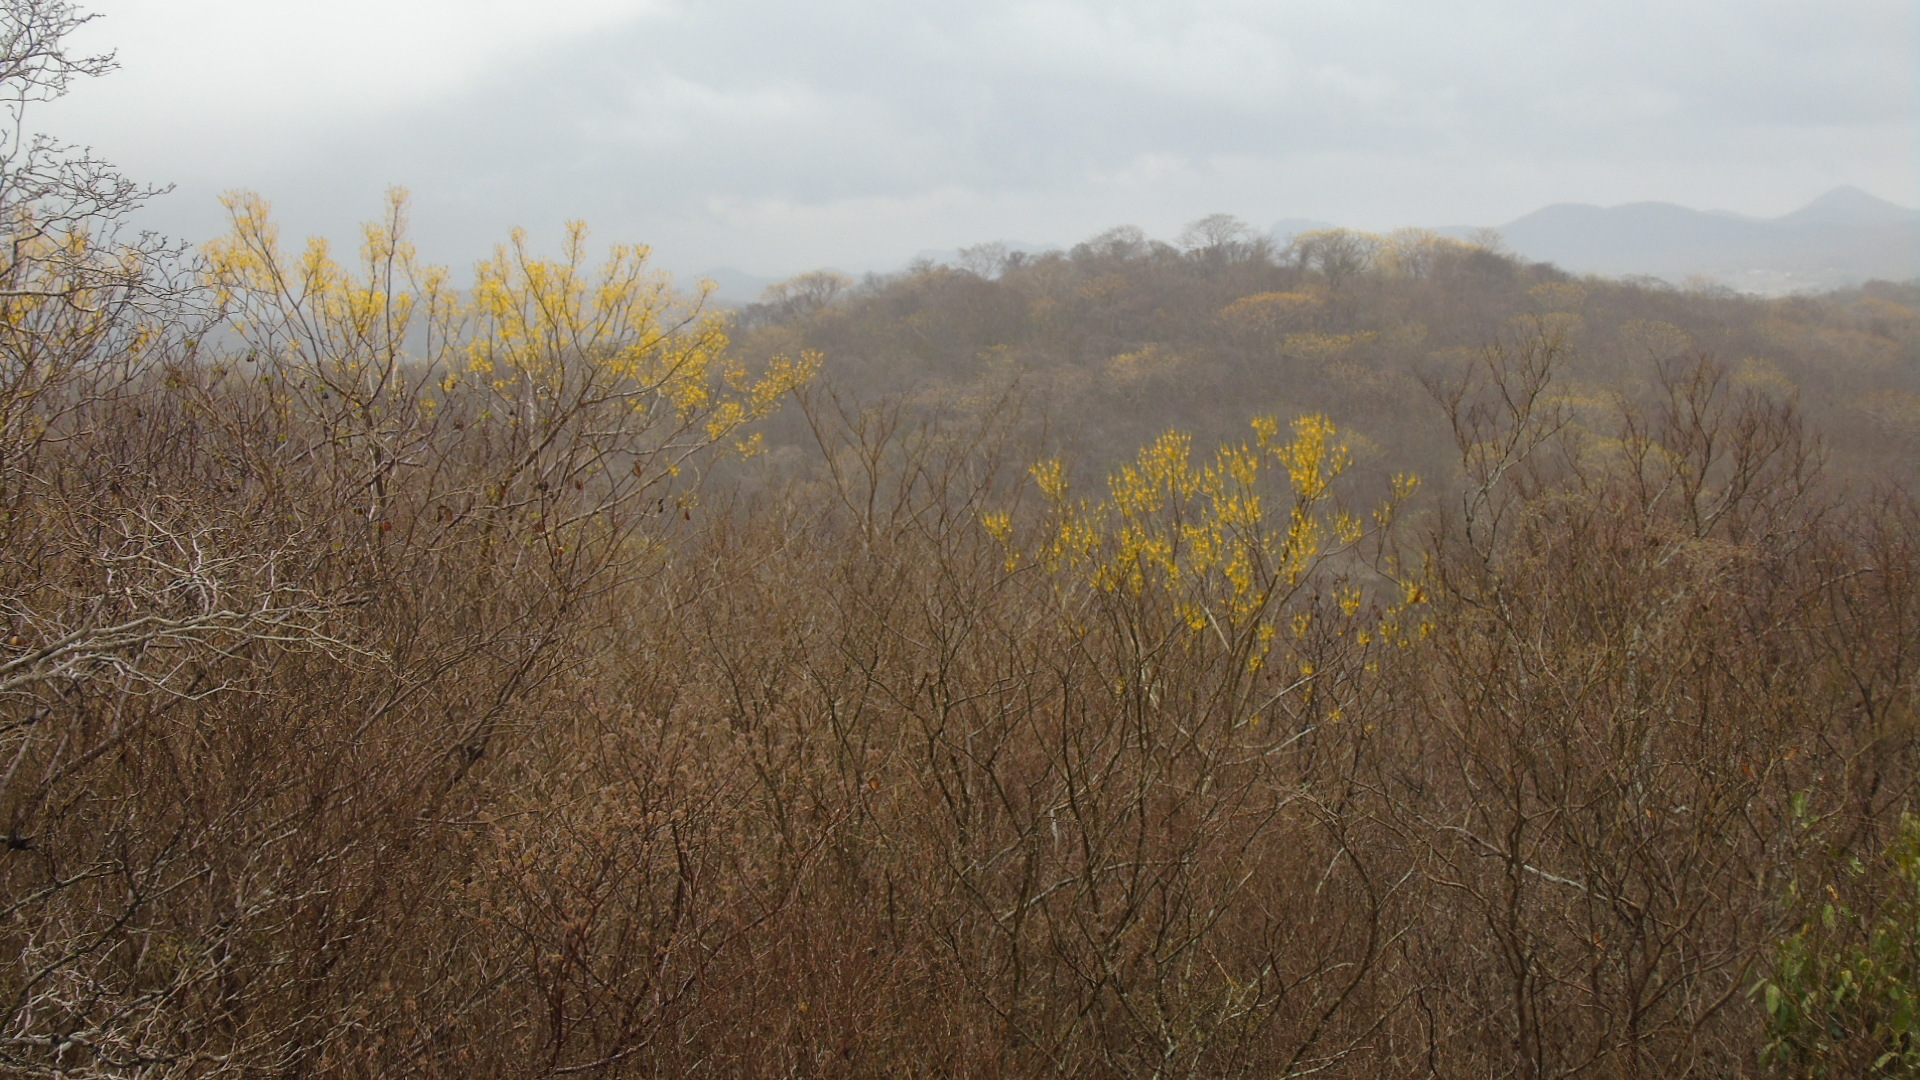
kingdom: Plantae
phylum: Tracheophyta
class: Magnoliopsida
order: Fabales
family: Fabaceae
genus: Conzattia
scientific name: Conzattia sericea
